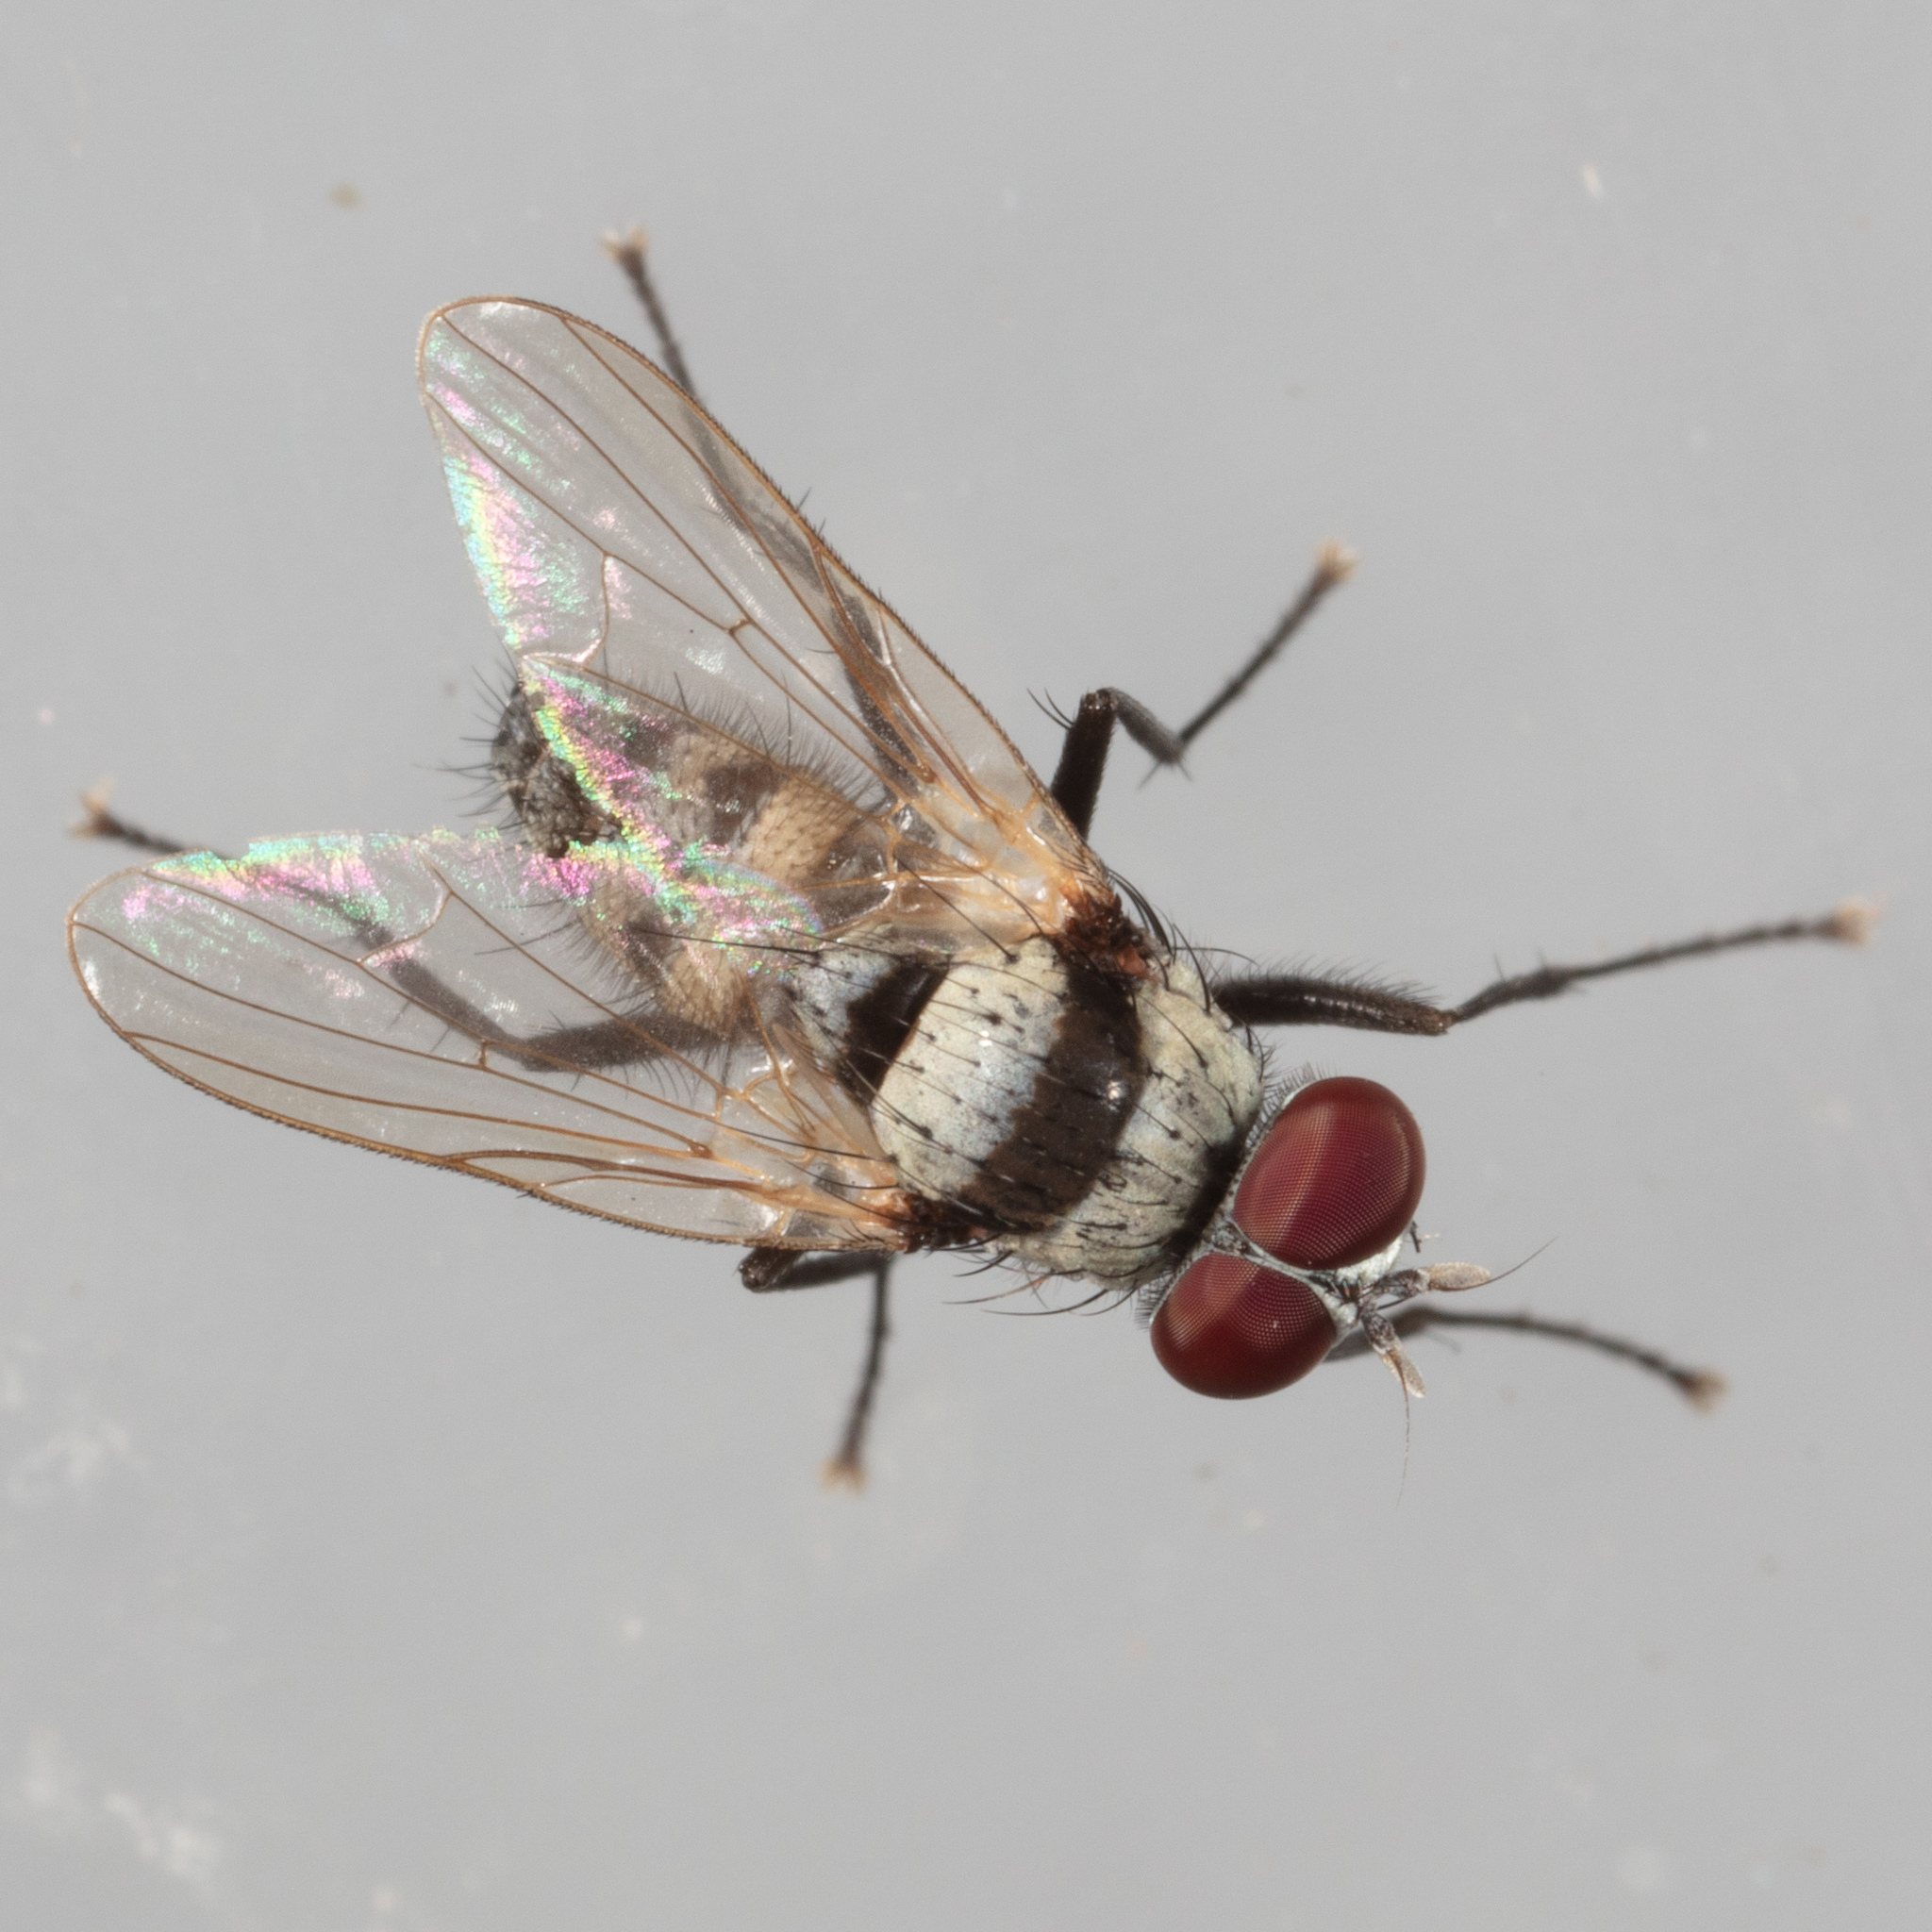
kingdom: Animalia
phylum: Arthropoda
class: Insecta
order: Diptera
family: Anthomyiidae
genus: Anthomyia
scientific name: Anthomyia illocata
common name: Fly
